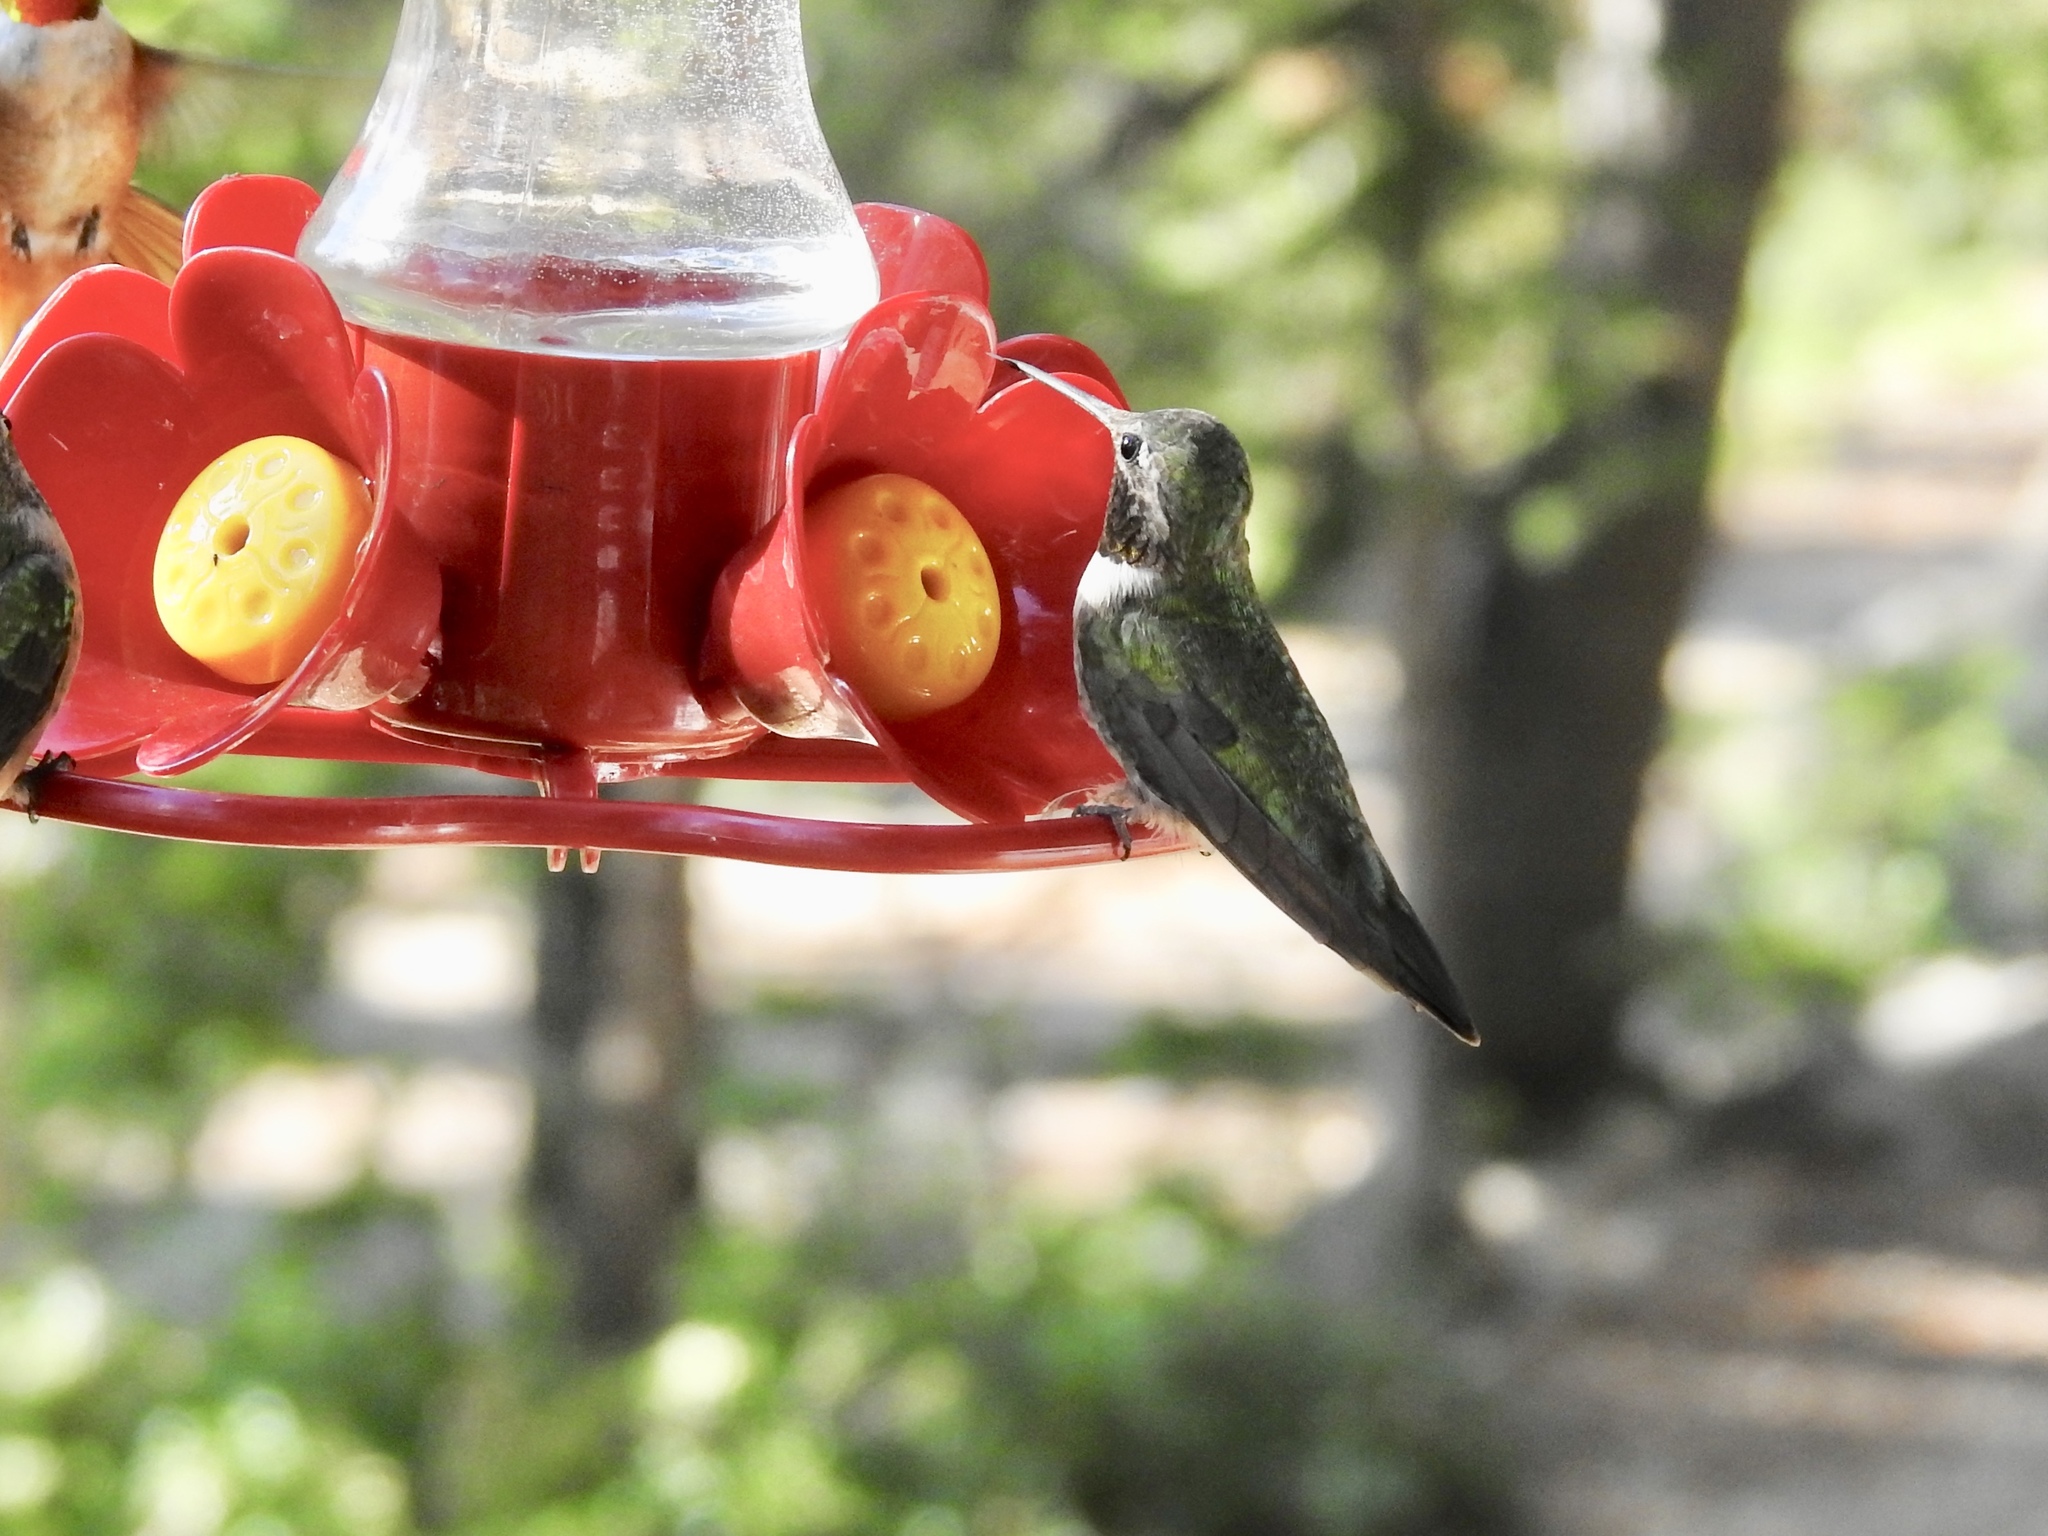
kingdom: Animalia
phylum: Chordata
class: Aves
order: Apodiformes
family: Trochilidae
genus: Selasphorus
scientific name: Selasphorus platycercus
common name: Broad-tailed hummingbird
